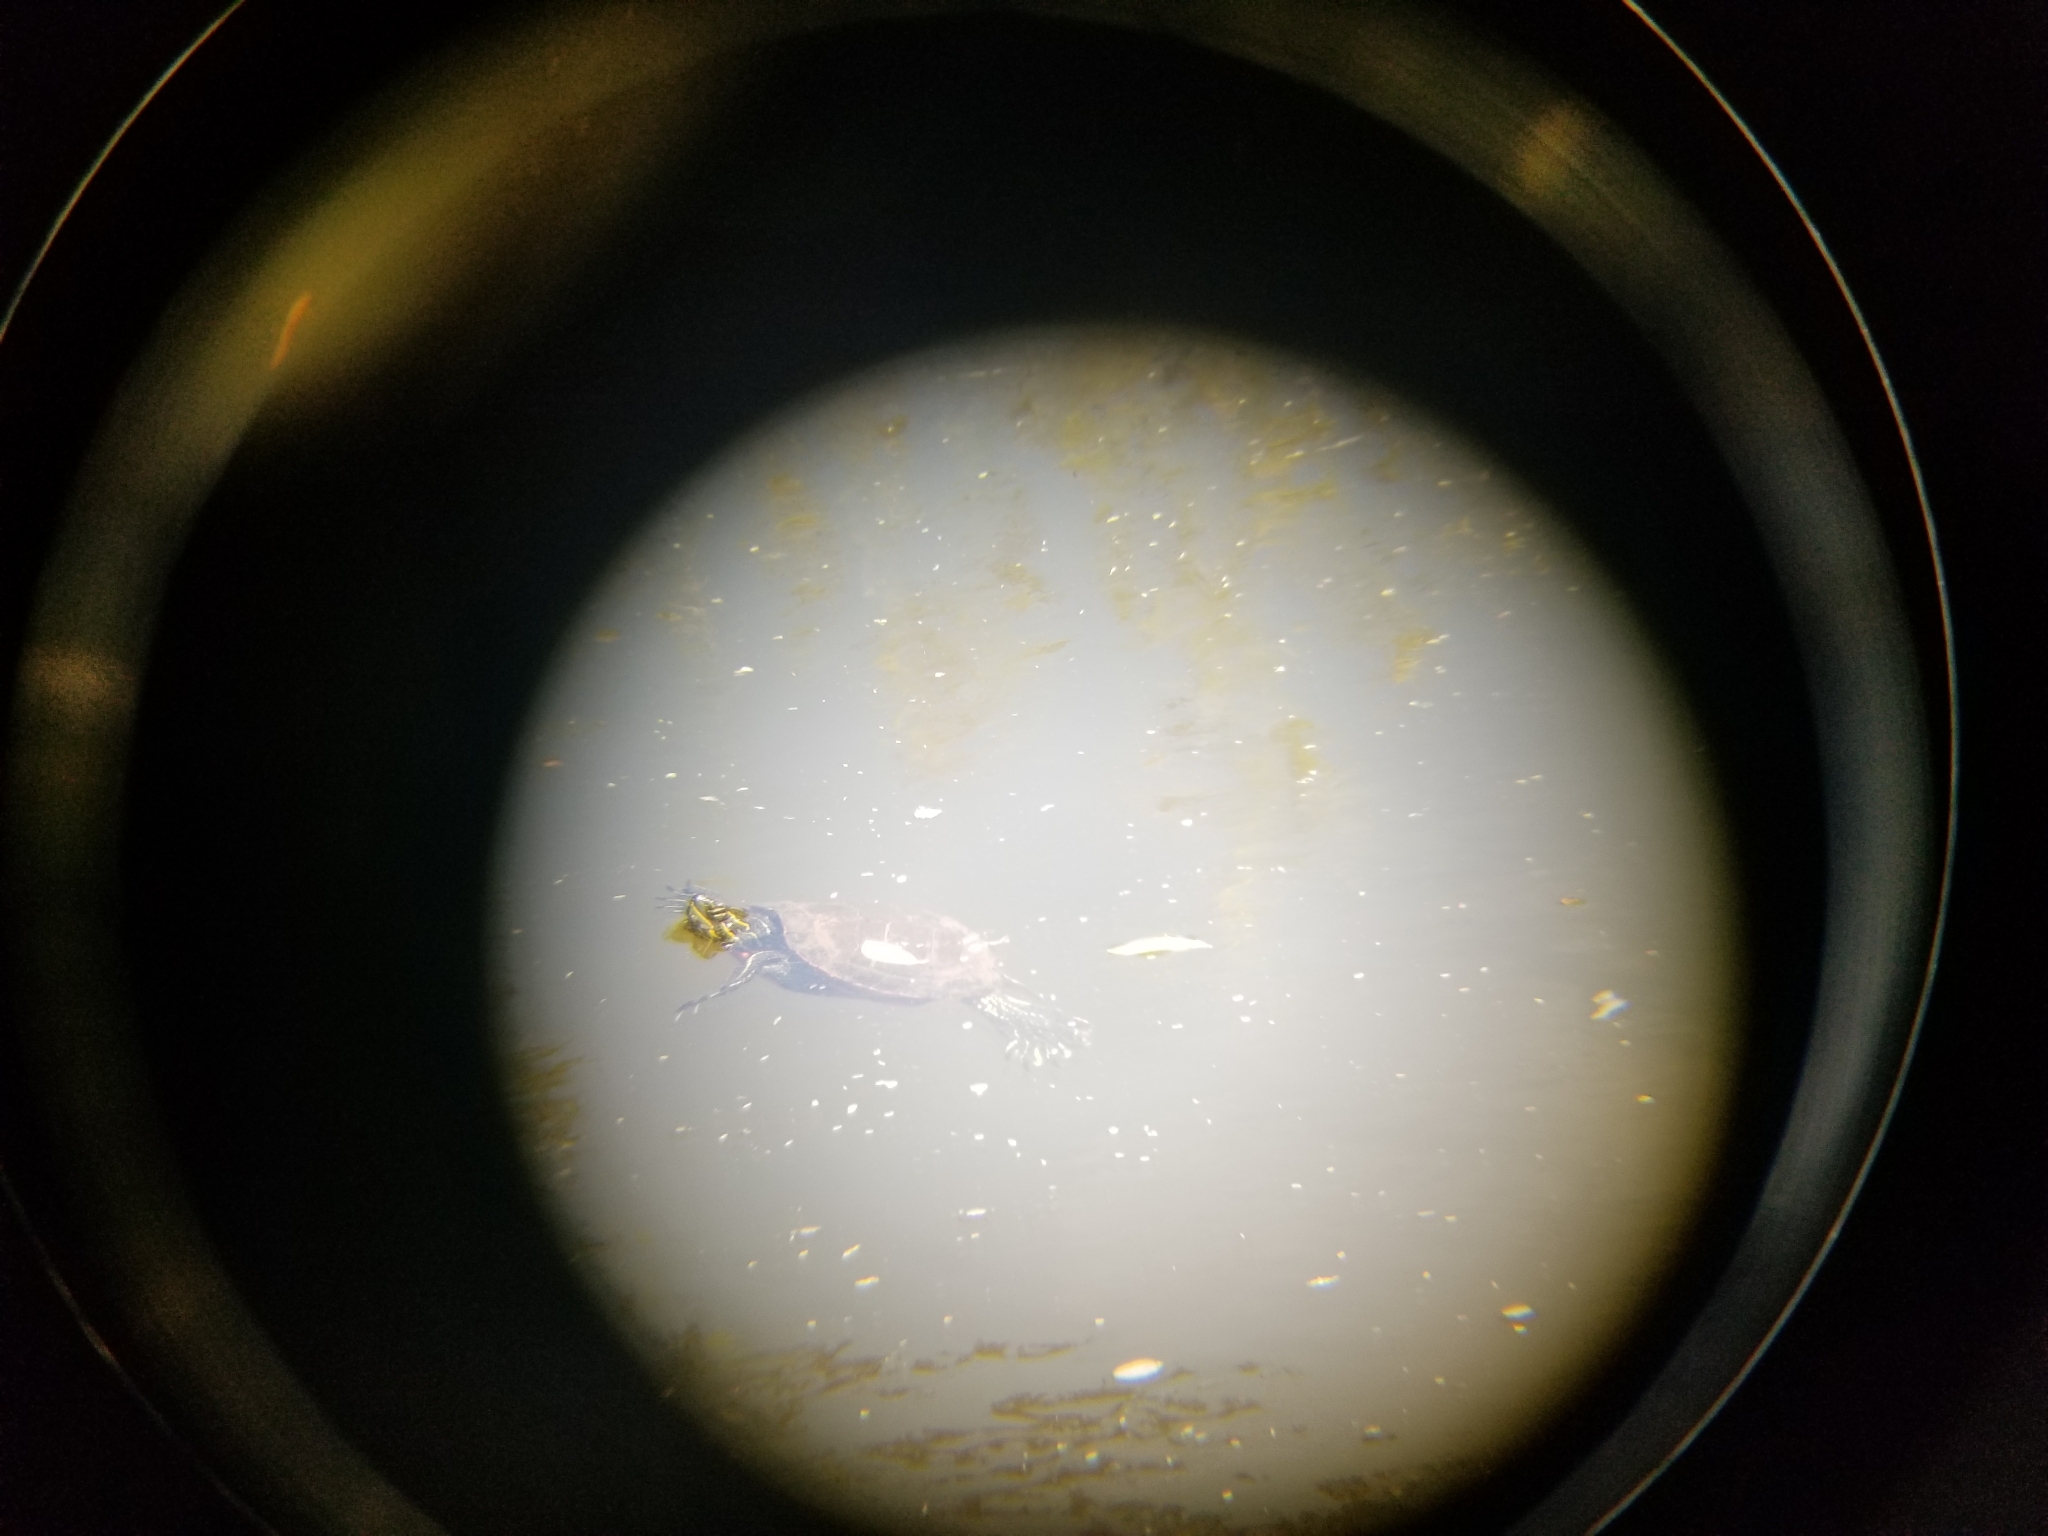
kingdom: Animalia
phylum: Chordata
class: Testudines
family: Emydidae
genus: Chrysemys
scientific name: Chrysemys picta
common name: Painted turtle
